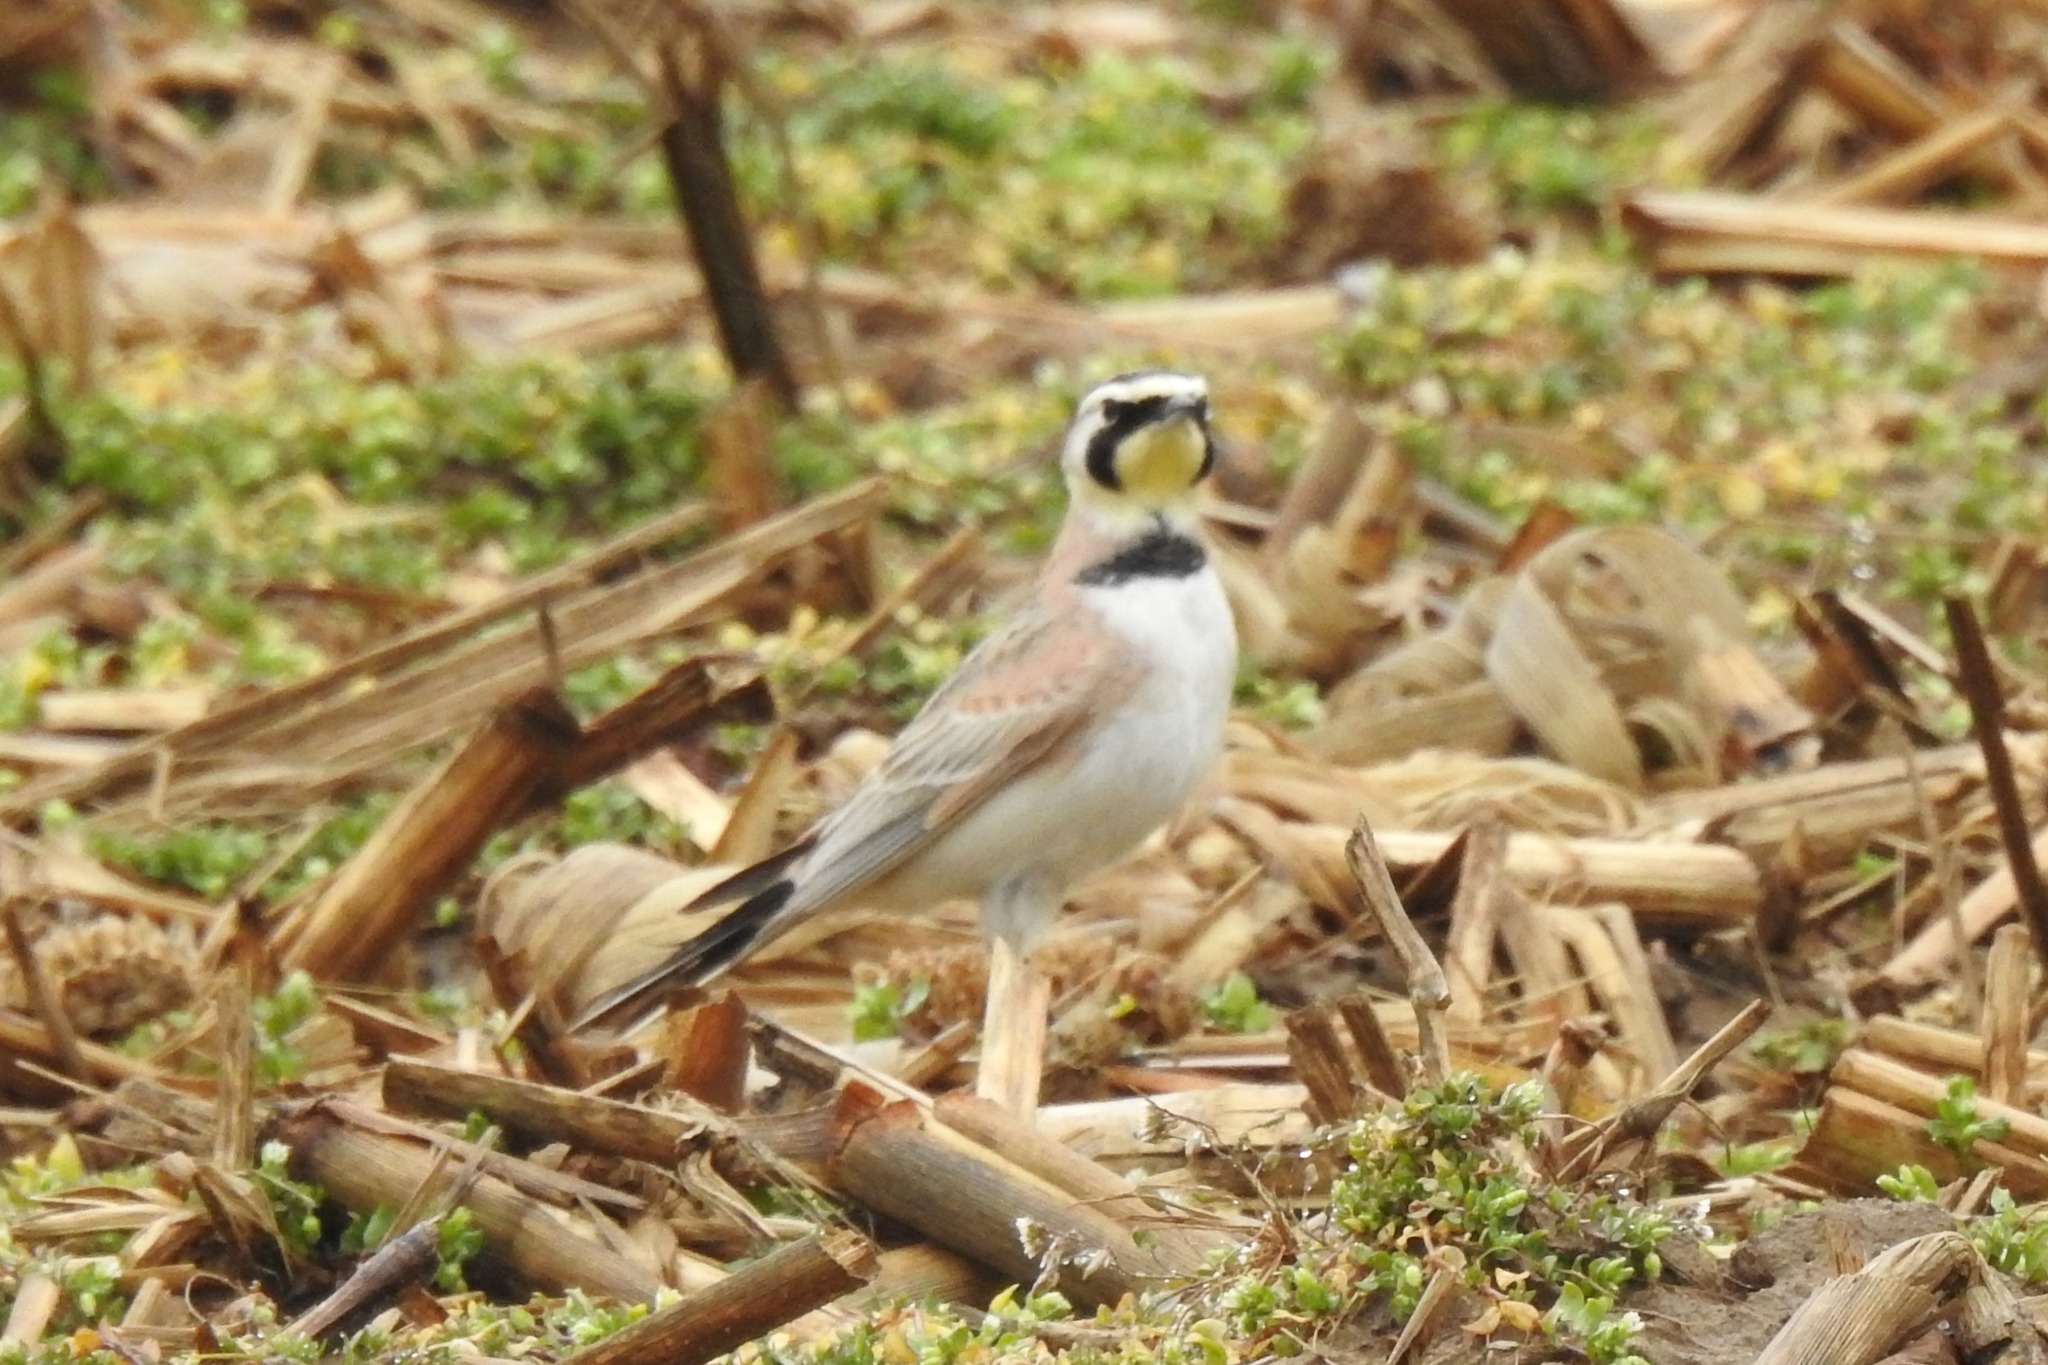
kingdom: Animalia
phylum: Chordata
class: Aves
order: Passeriformes
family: Alaudidae
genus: Eremophila
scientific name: Eremophila alpestris
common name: Horned lark
